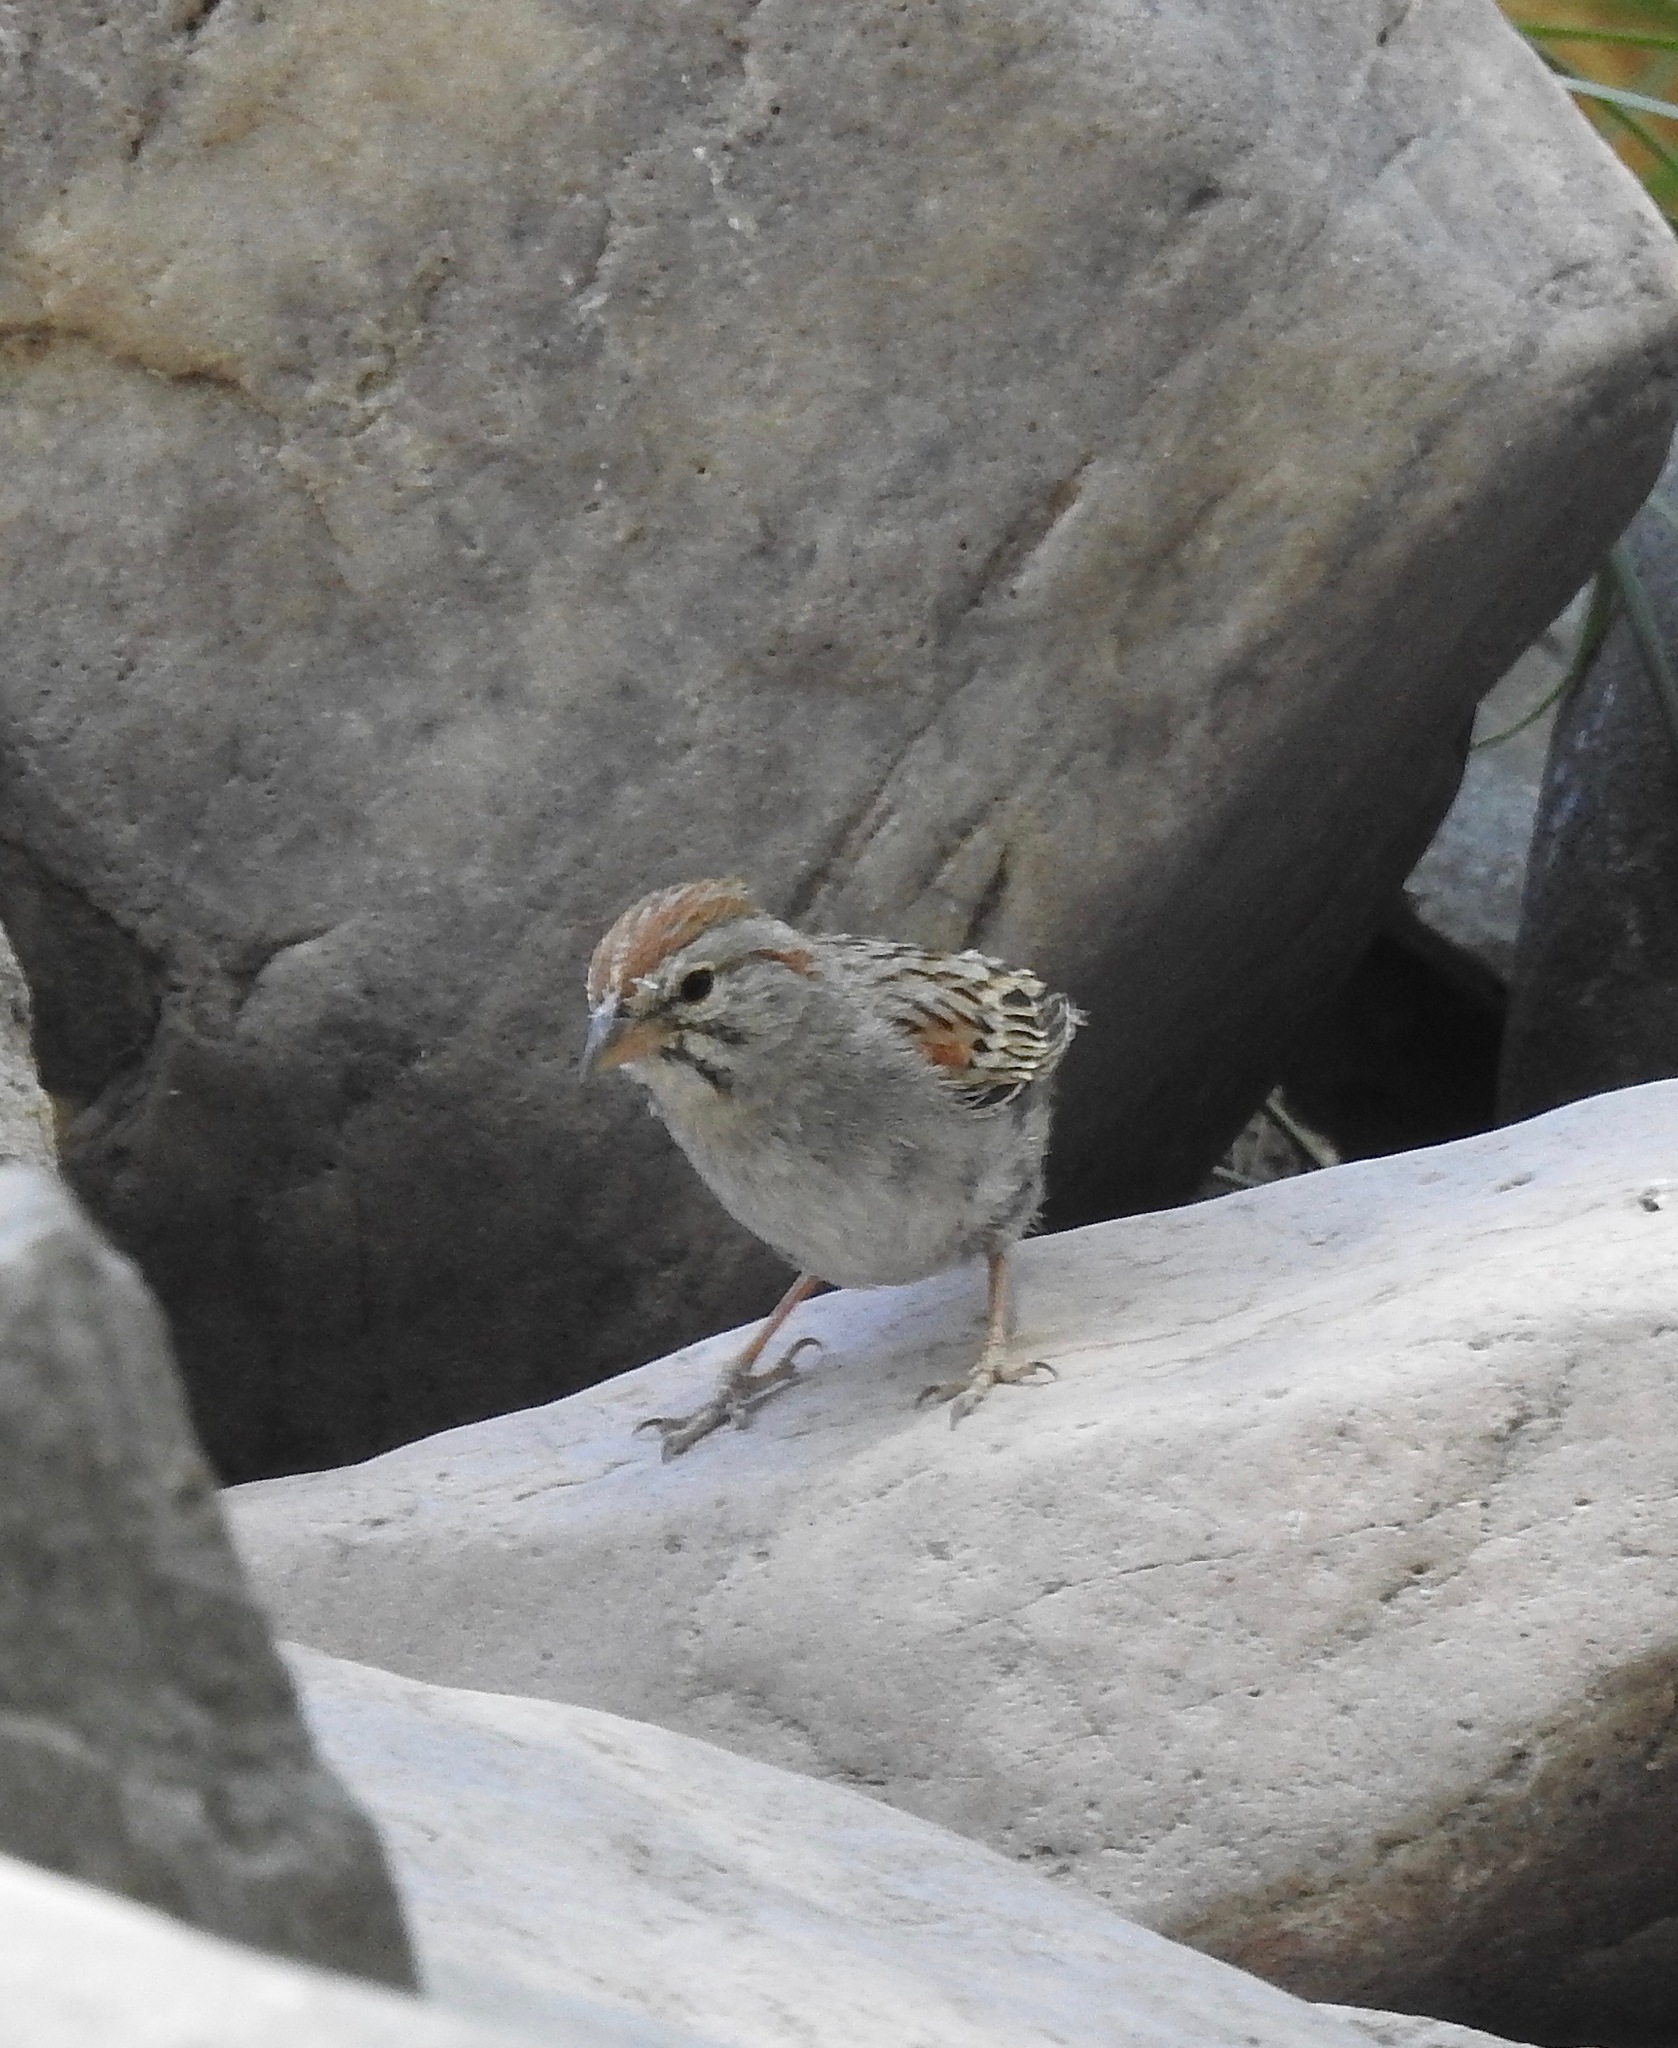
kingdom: Animalia
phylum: Chordata
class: Aves
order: Passeriformes
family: Passerellidae
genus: Peucaea
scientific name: Peucaea carpalis
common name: Rufous-winged sparrow
